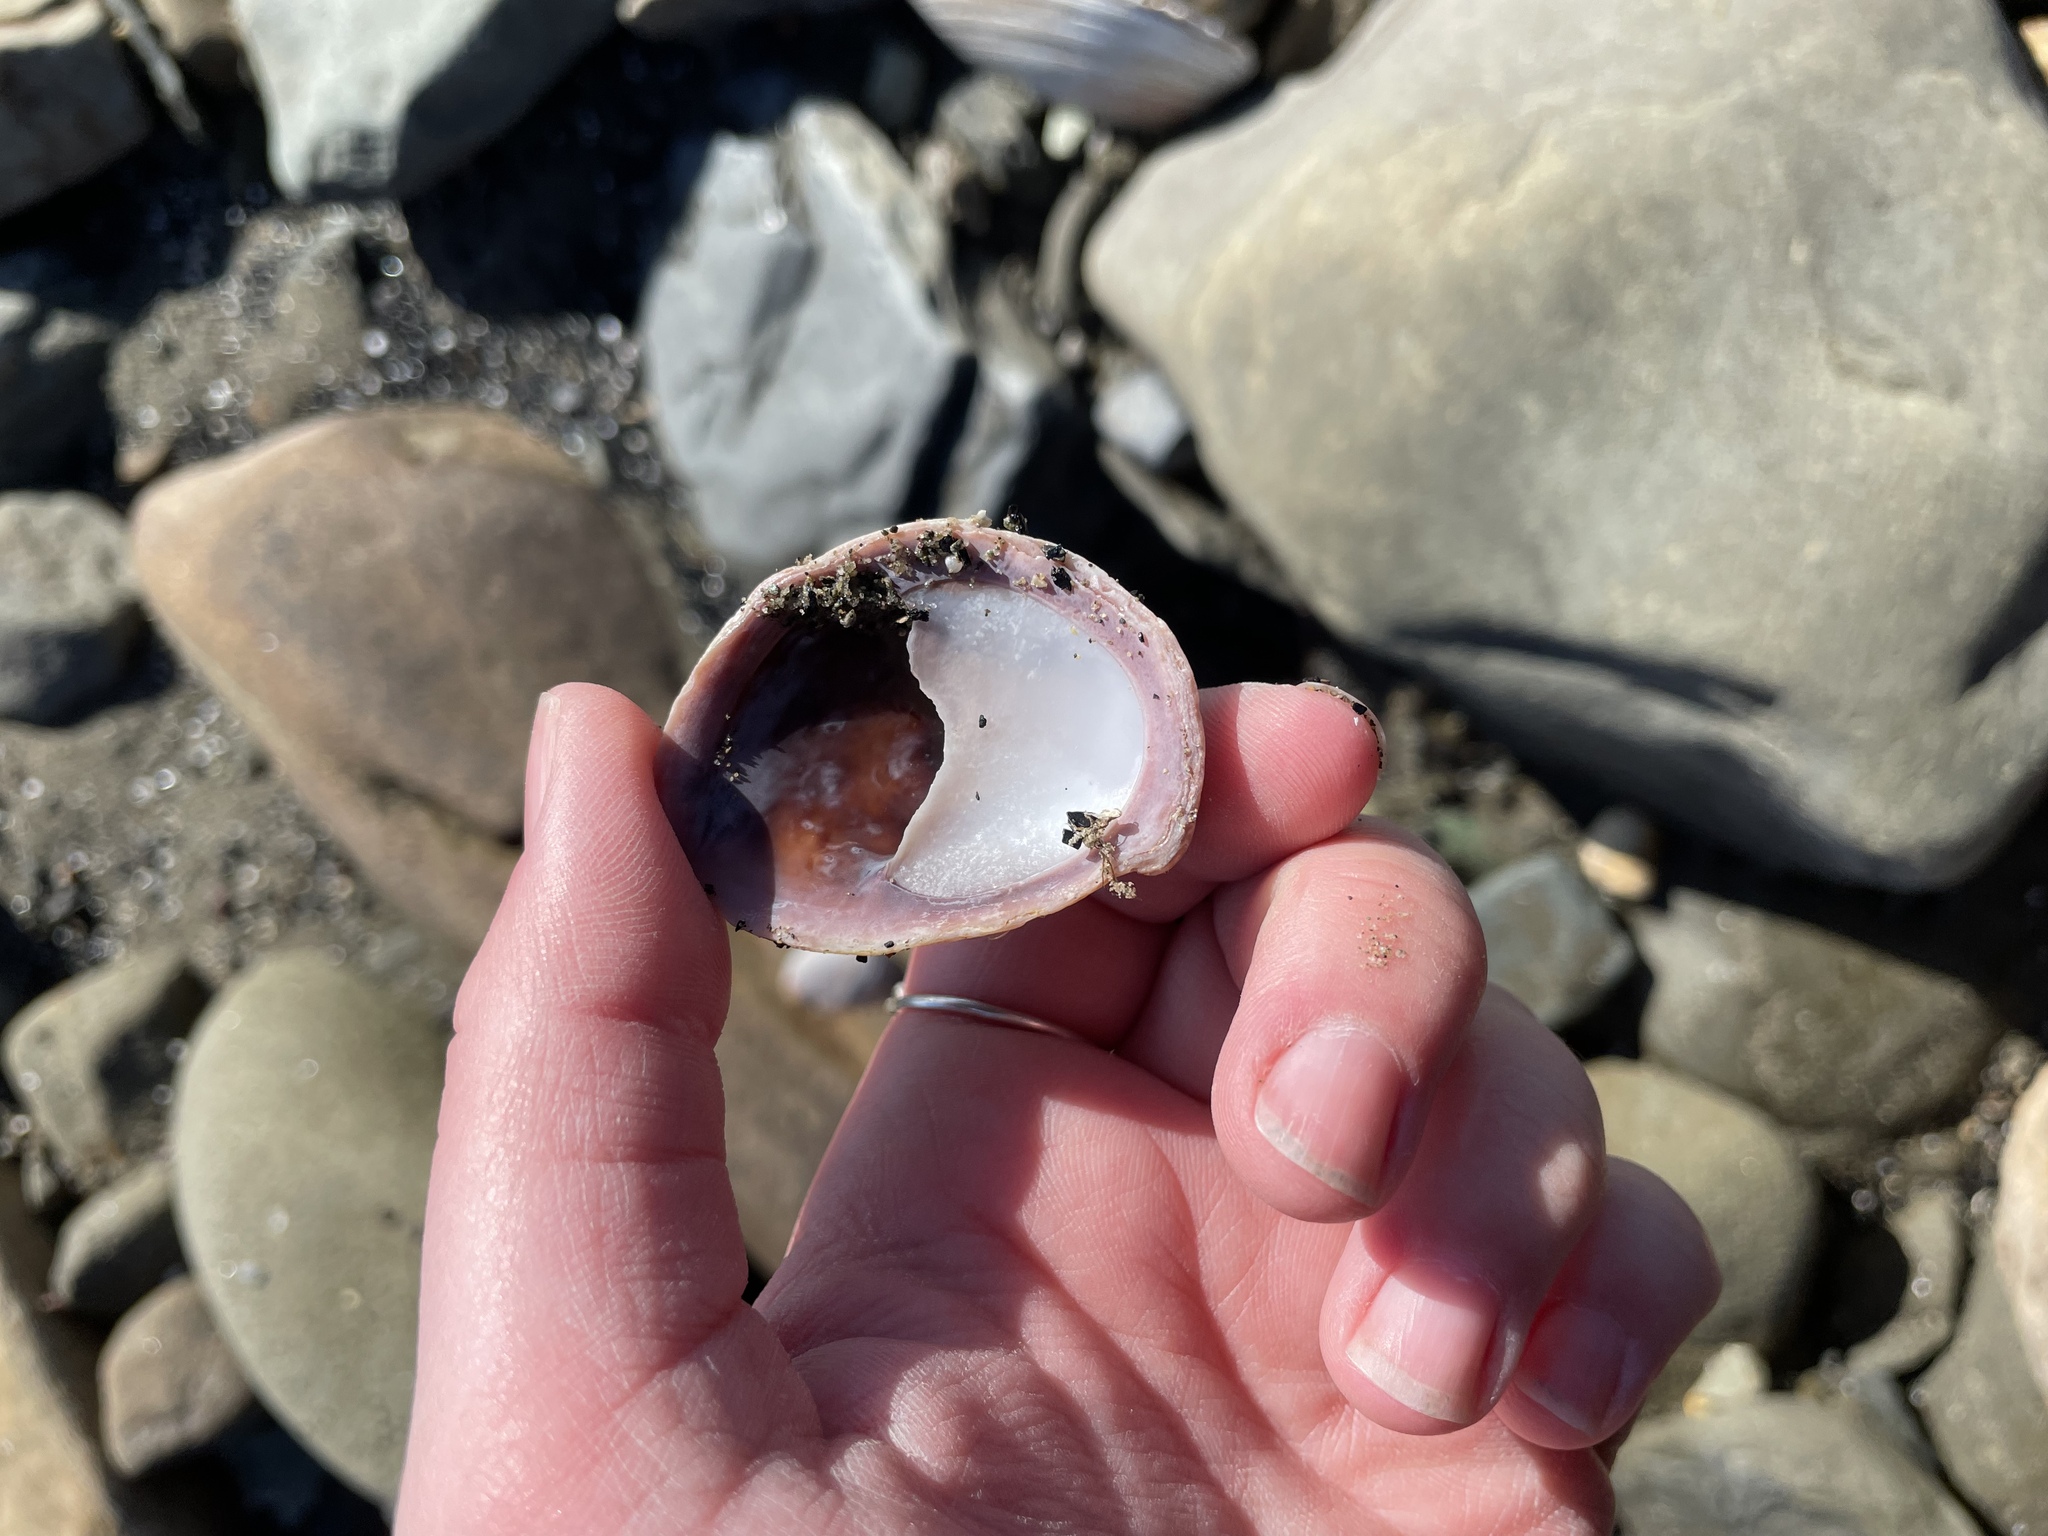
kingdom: Animalia
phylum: Mollusca
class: Gastropoda
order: Littorinimorpha
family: Calyptraeidae
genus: Crepidula
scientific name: Crepidula fornicata
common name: Slipper limpet
